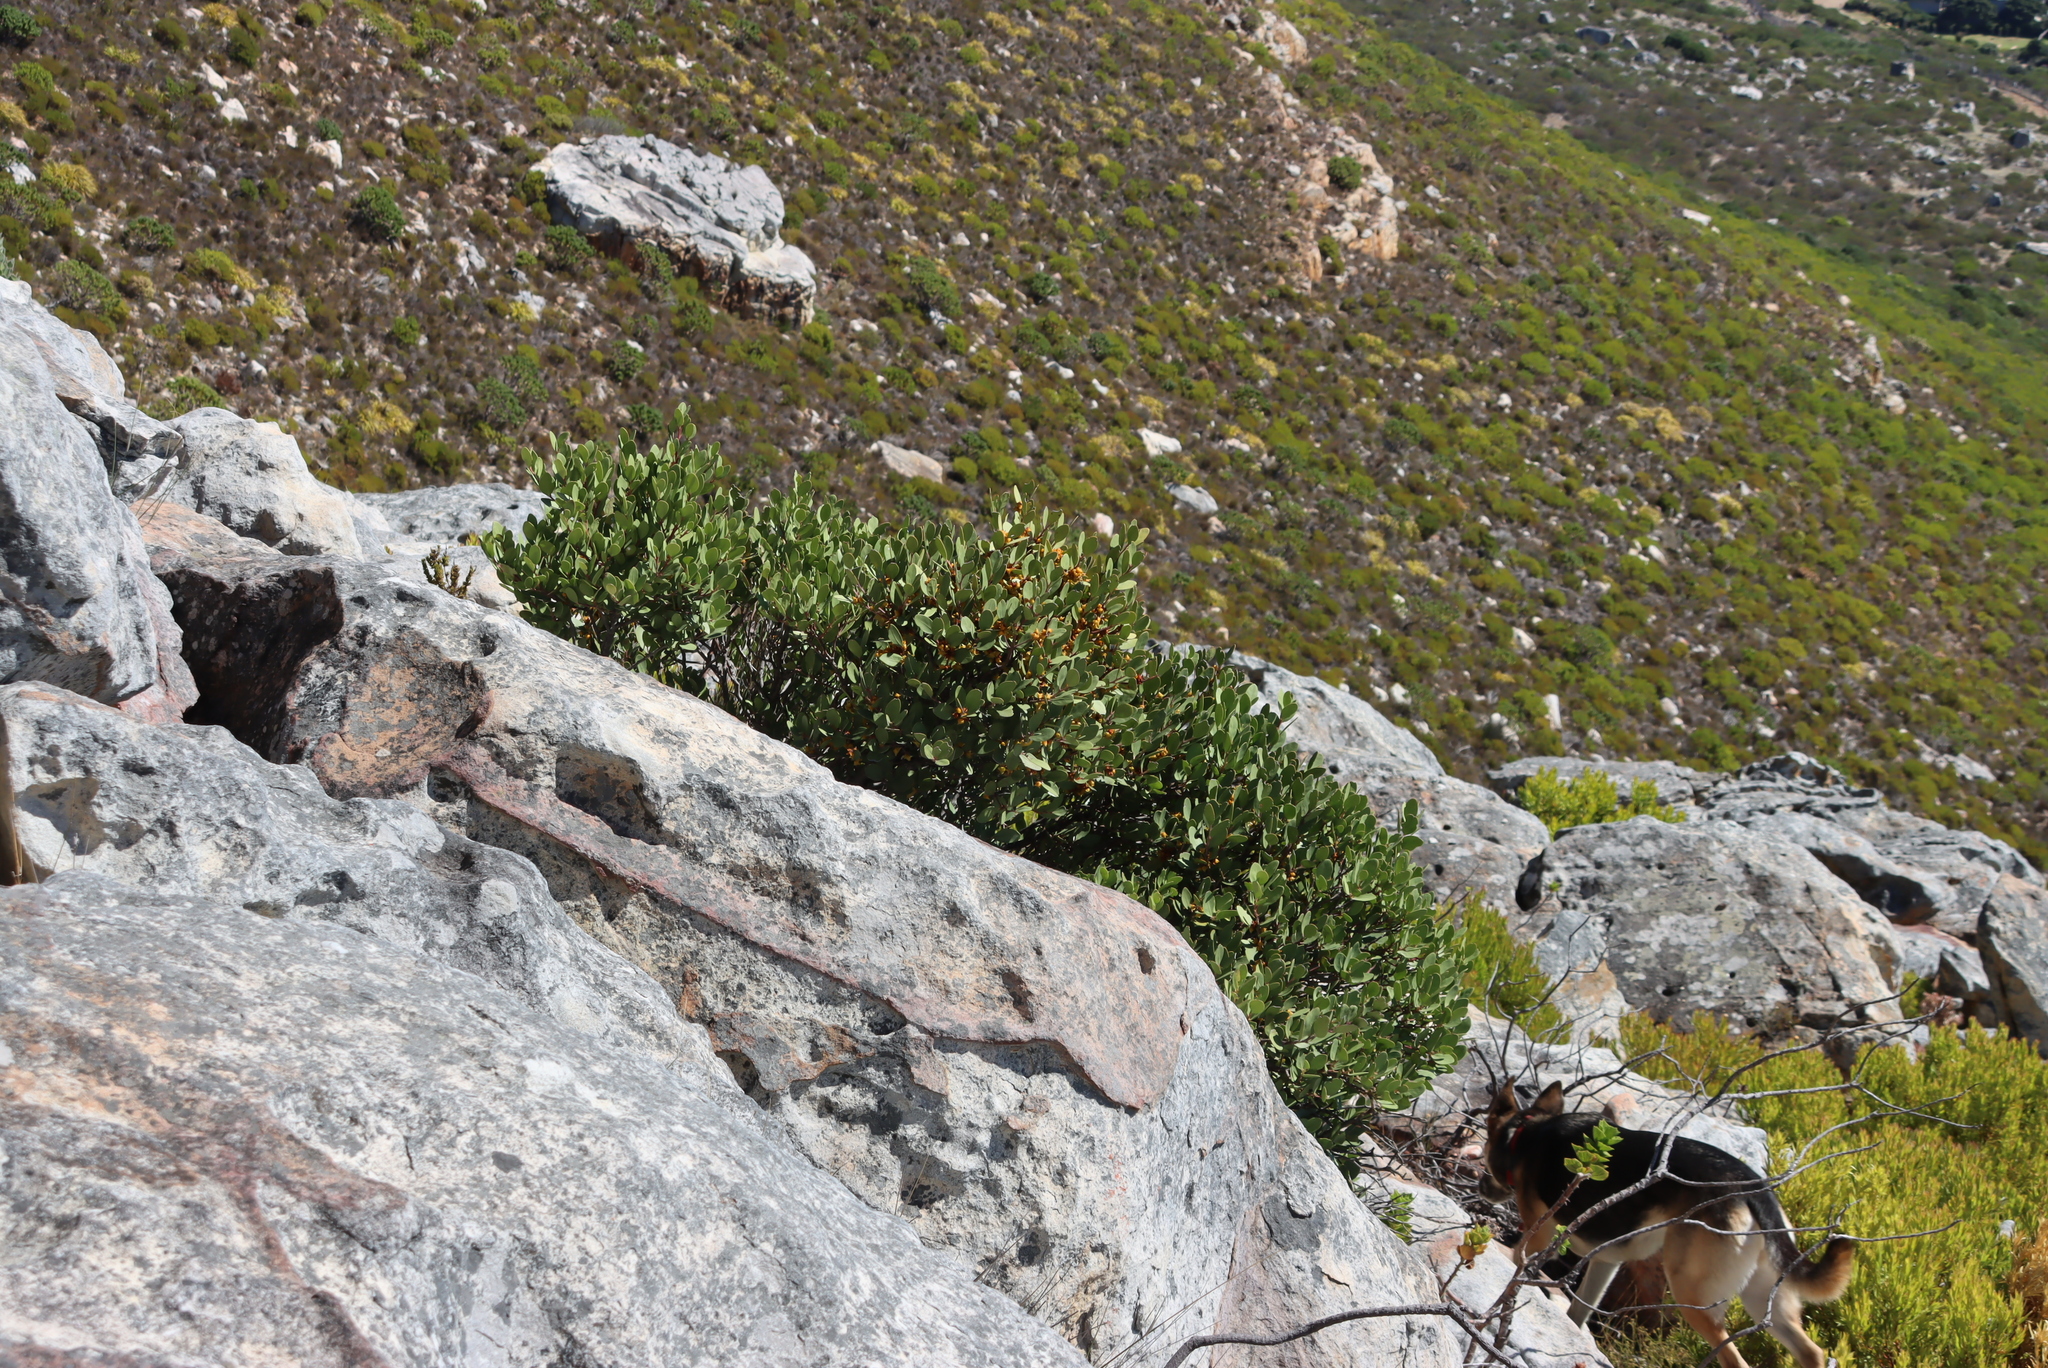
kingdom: Plantae
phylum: Tracheophyta
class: Magnoliopsida
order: Celastrales
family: Celastraceae
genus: Pterocelastrus
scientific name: Pterocelastrus tricuspidatus
